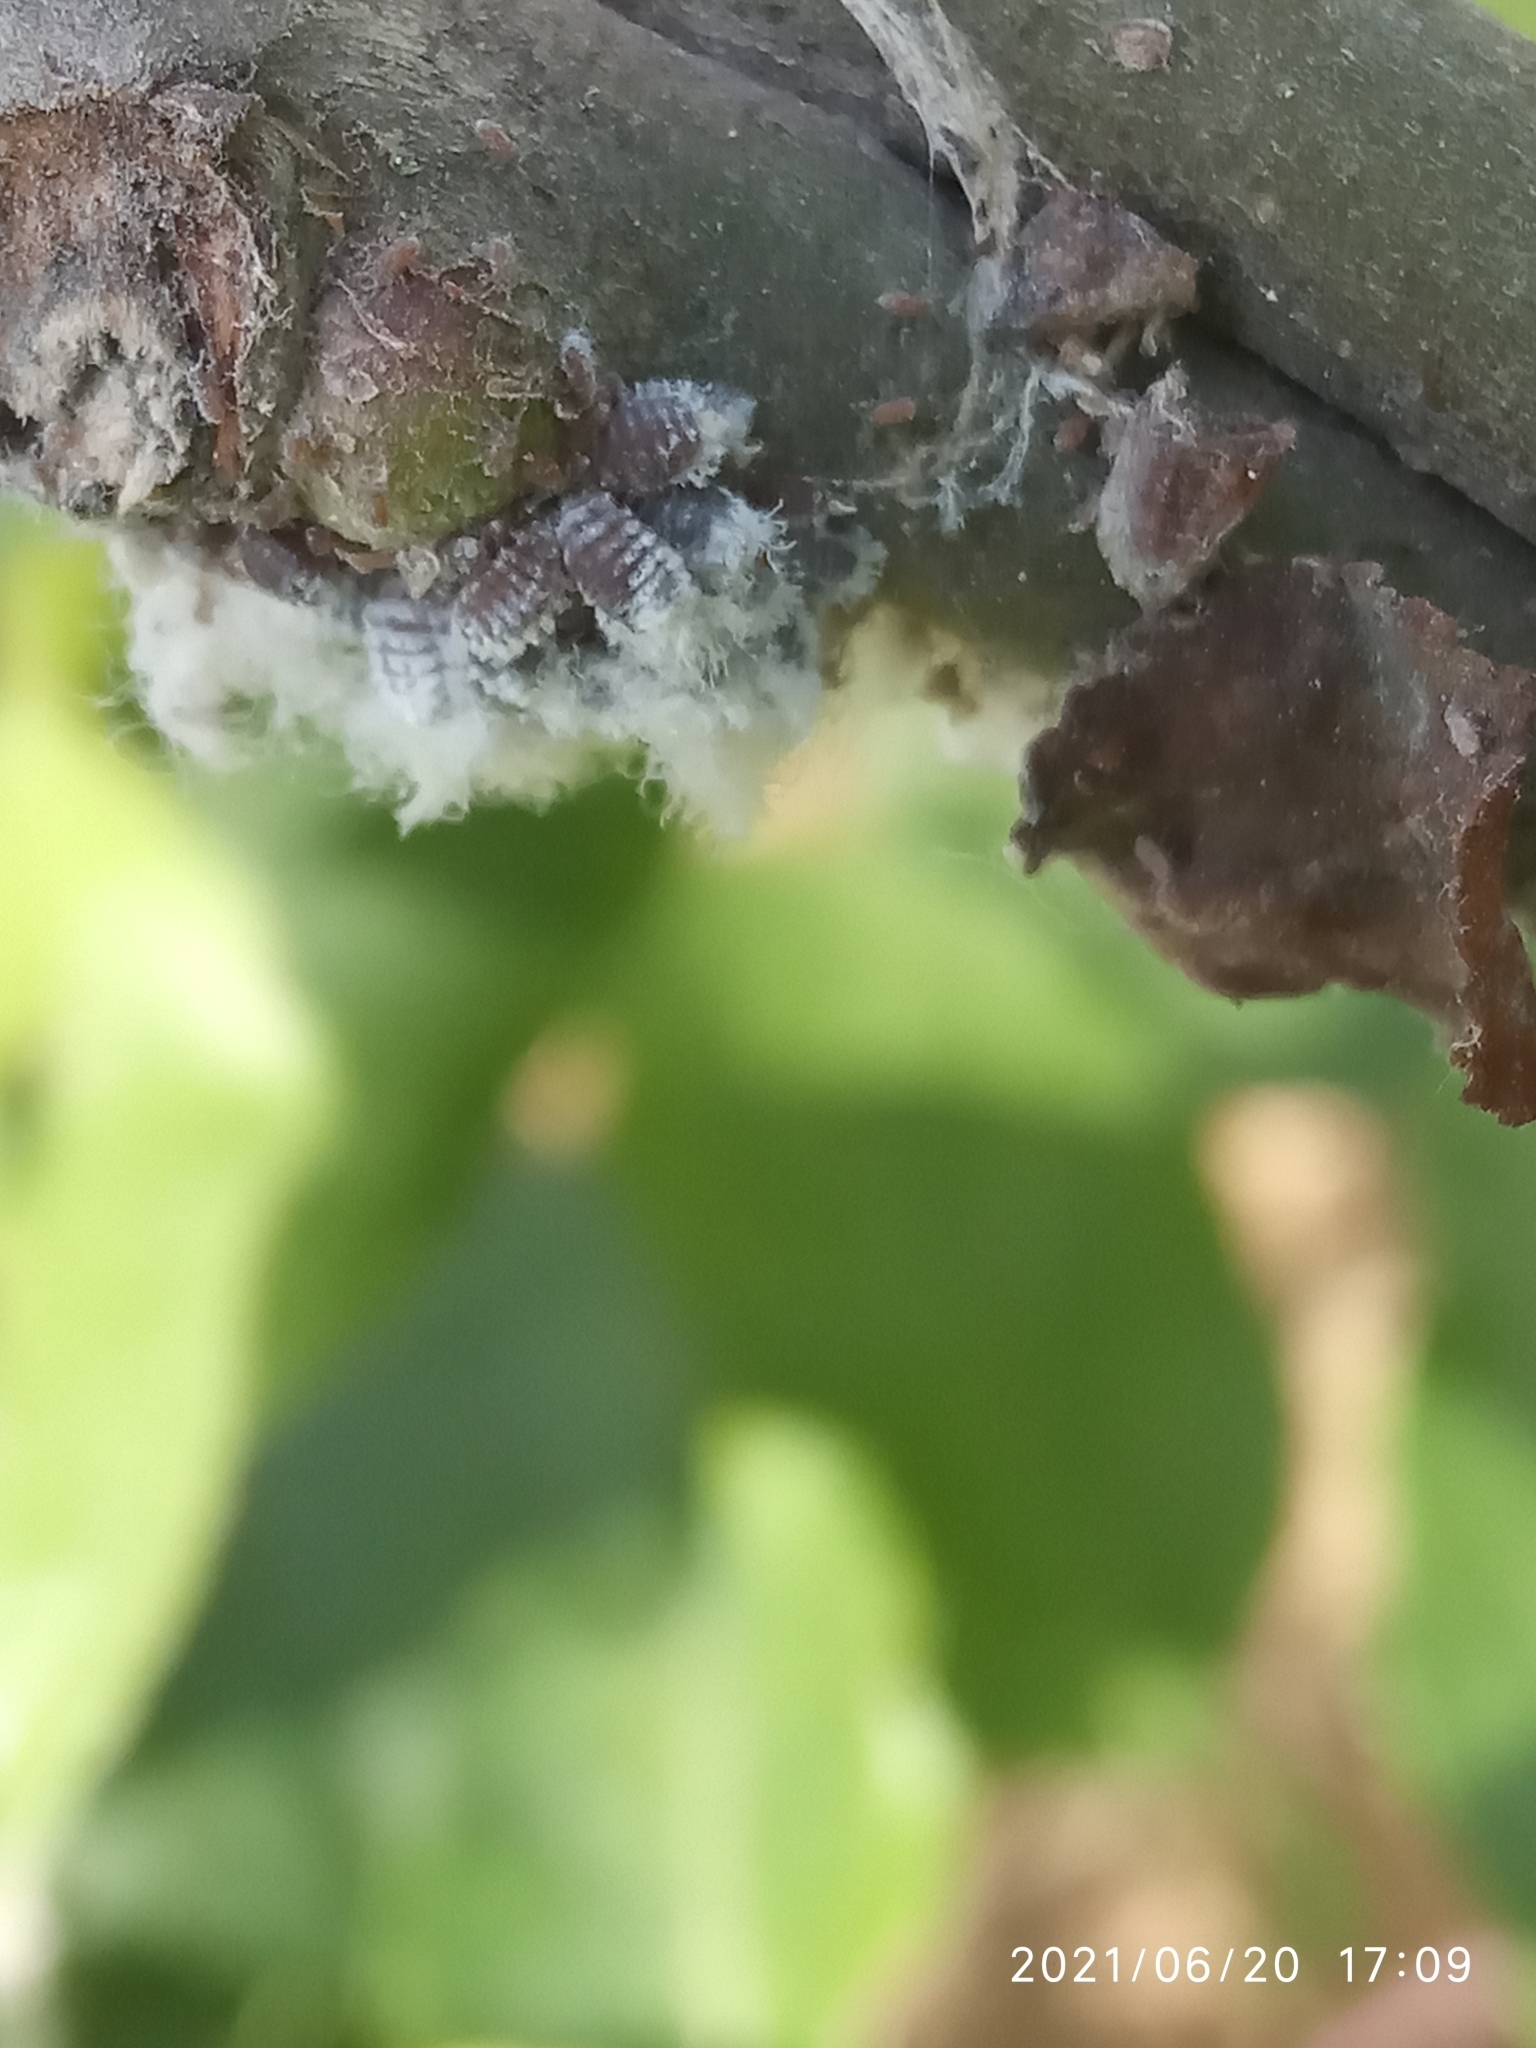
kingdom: Animalia
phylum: Arthropoda
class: Insecta
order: Hemiptera
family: Aphididae
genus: Eriosoma
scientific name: Eriosoma lanigerum
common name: Woolly apple aphid
